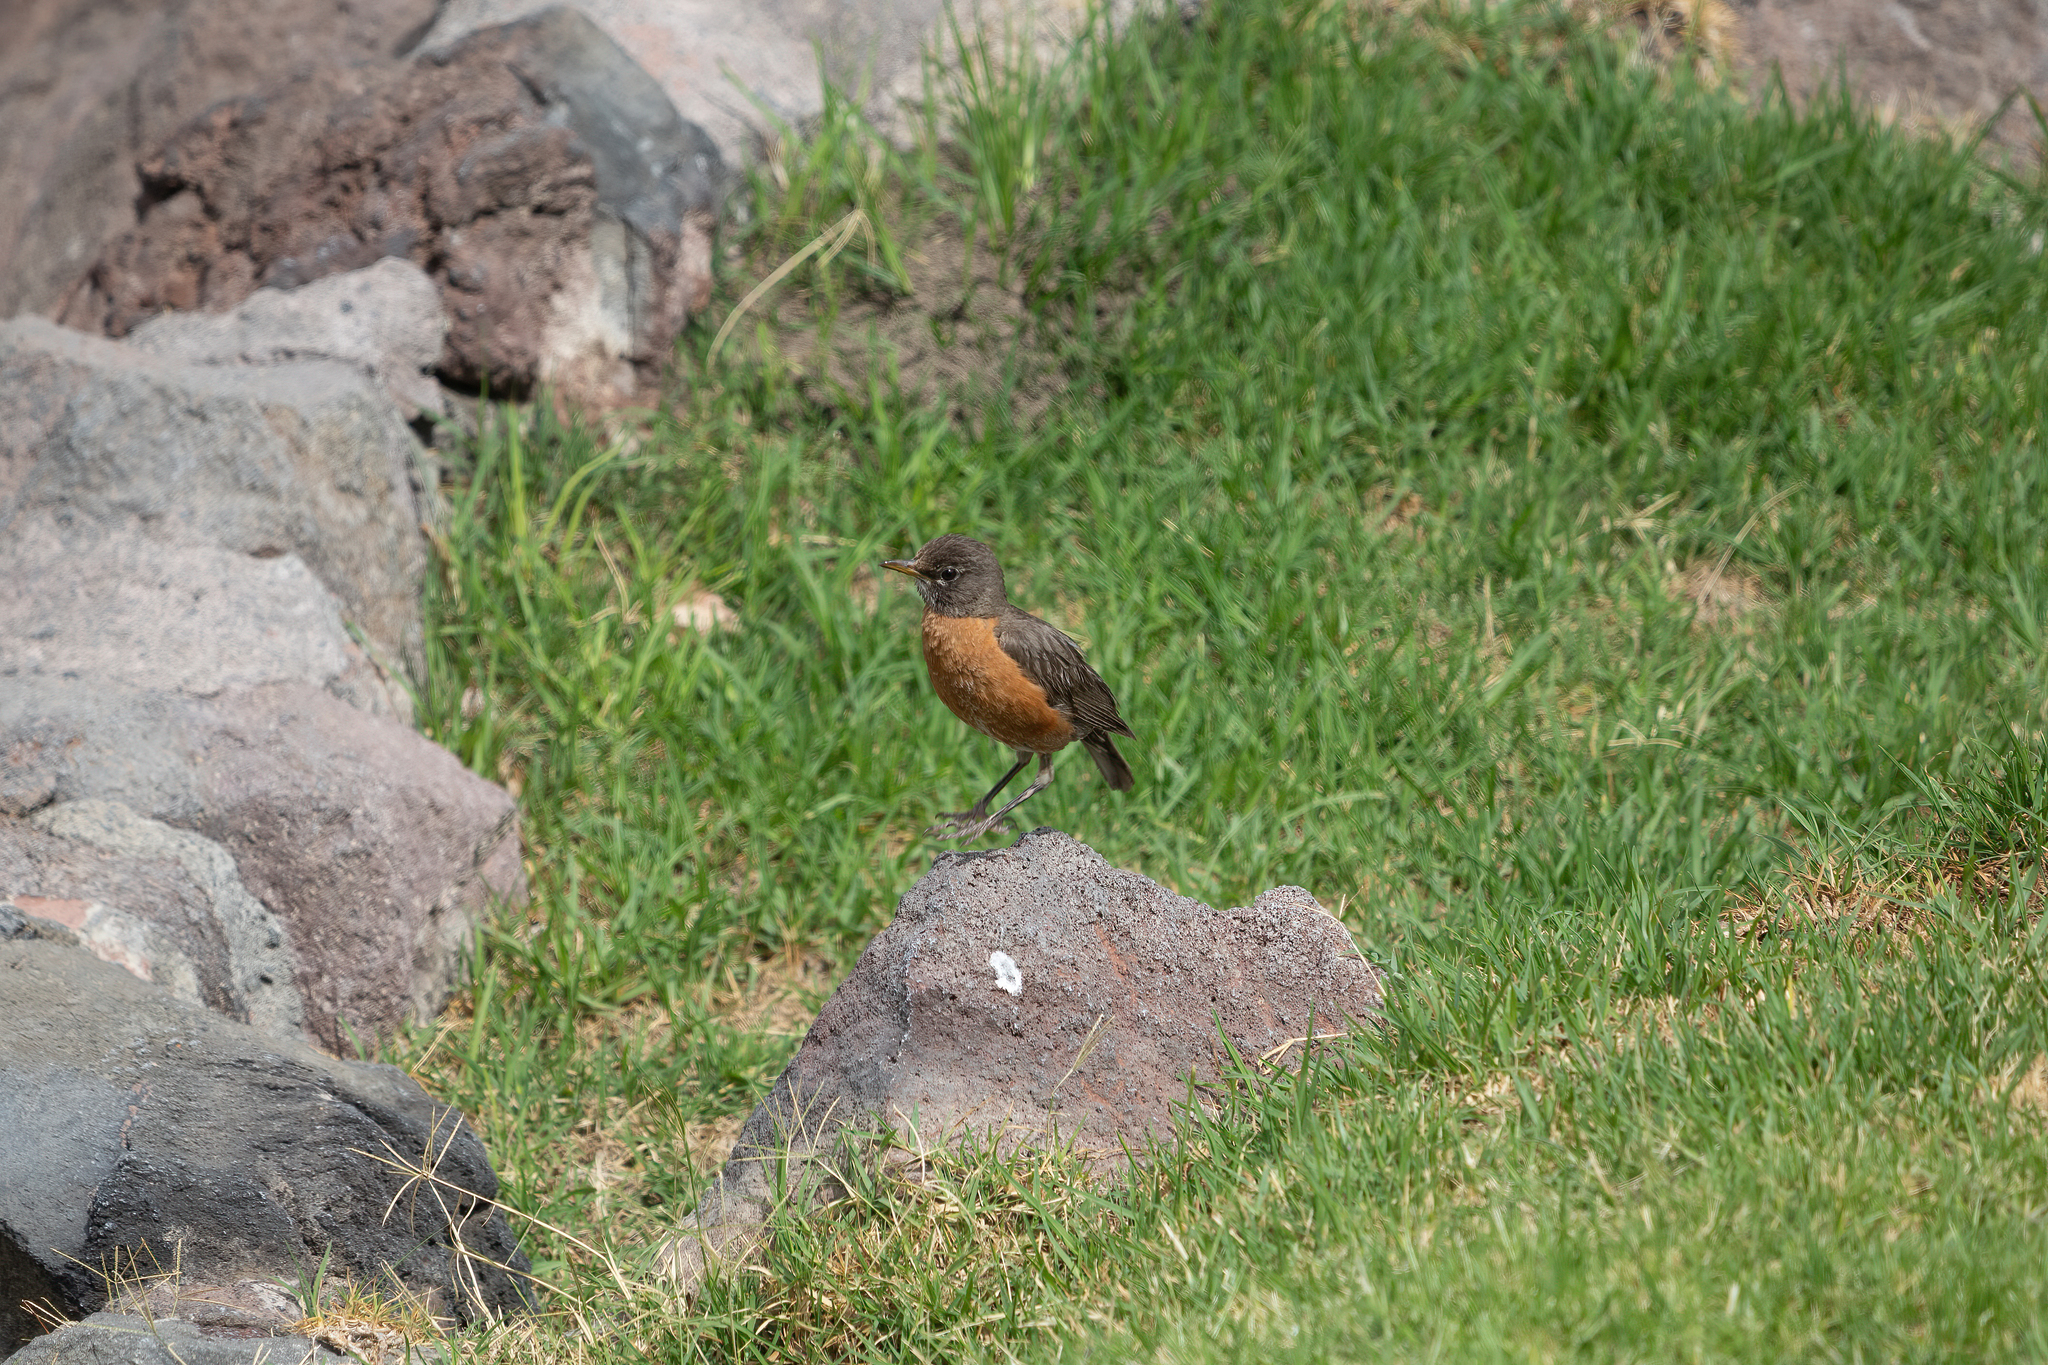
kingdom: Animalia
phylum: Chordata
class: Aves
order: Passeriformes
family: Turdidae
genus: Turdus
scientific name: Turdus migratorius
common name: American robin
